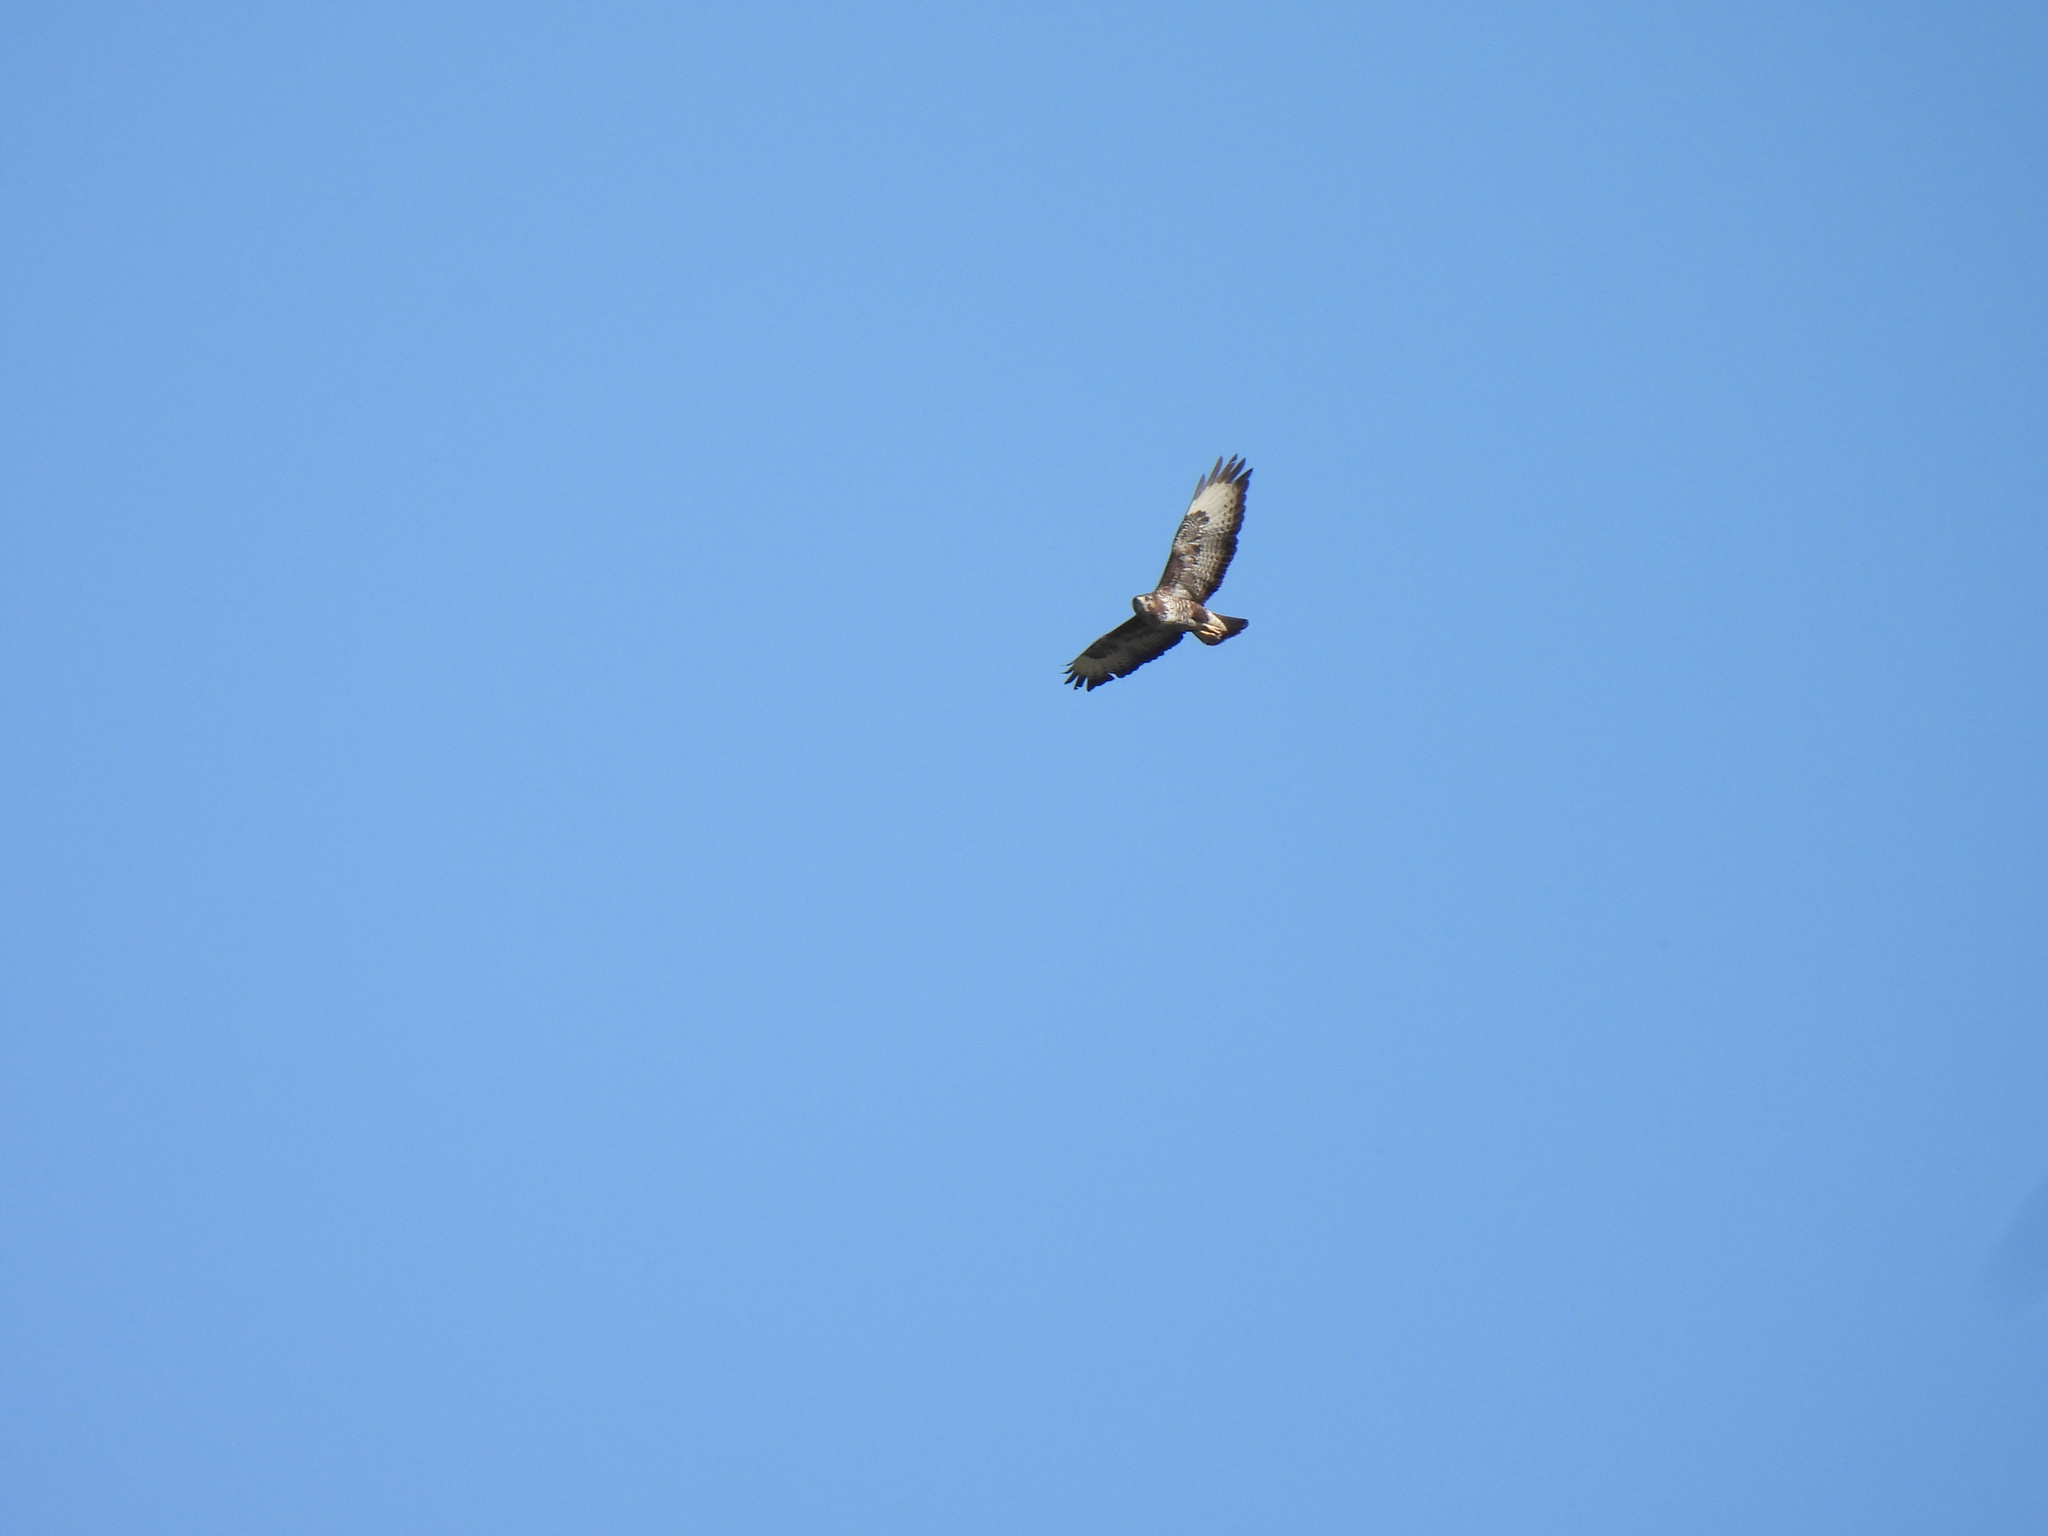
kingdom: Animalia
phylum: Chordata
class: Aves
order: Accipitriformes
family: Accipitridae
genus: Buteo
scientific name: Buteo buteo
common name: Common buzzard
